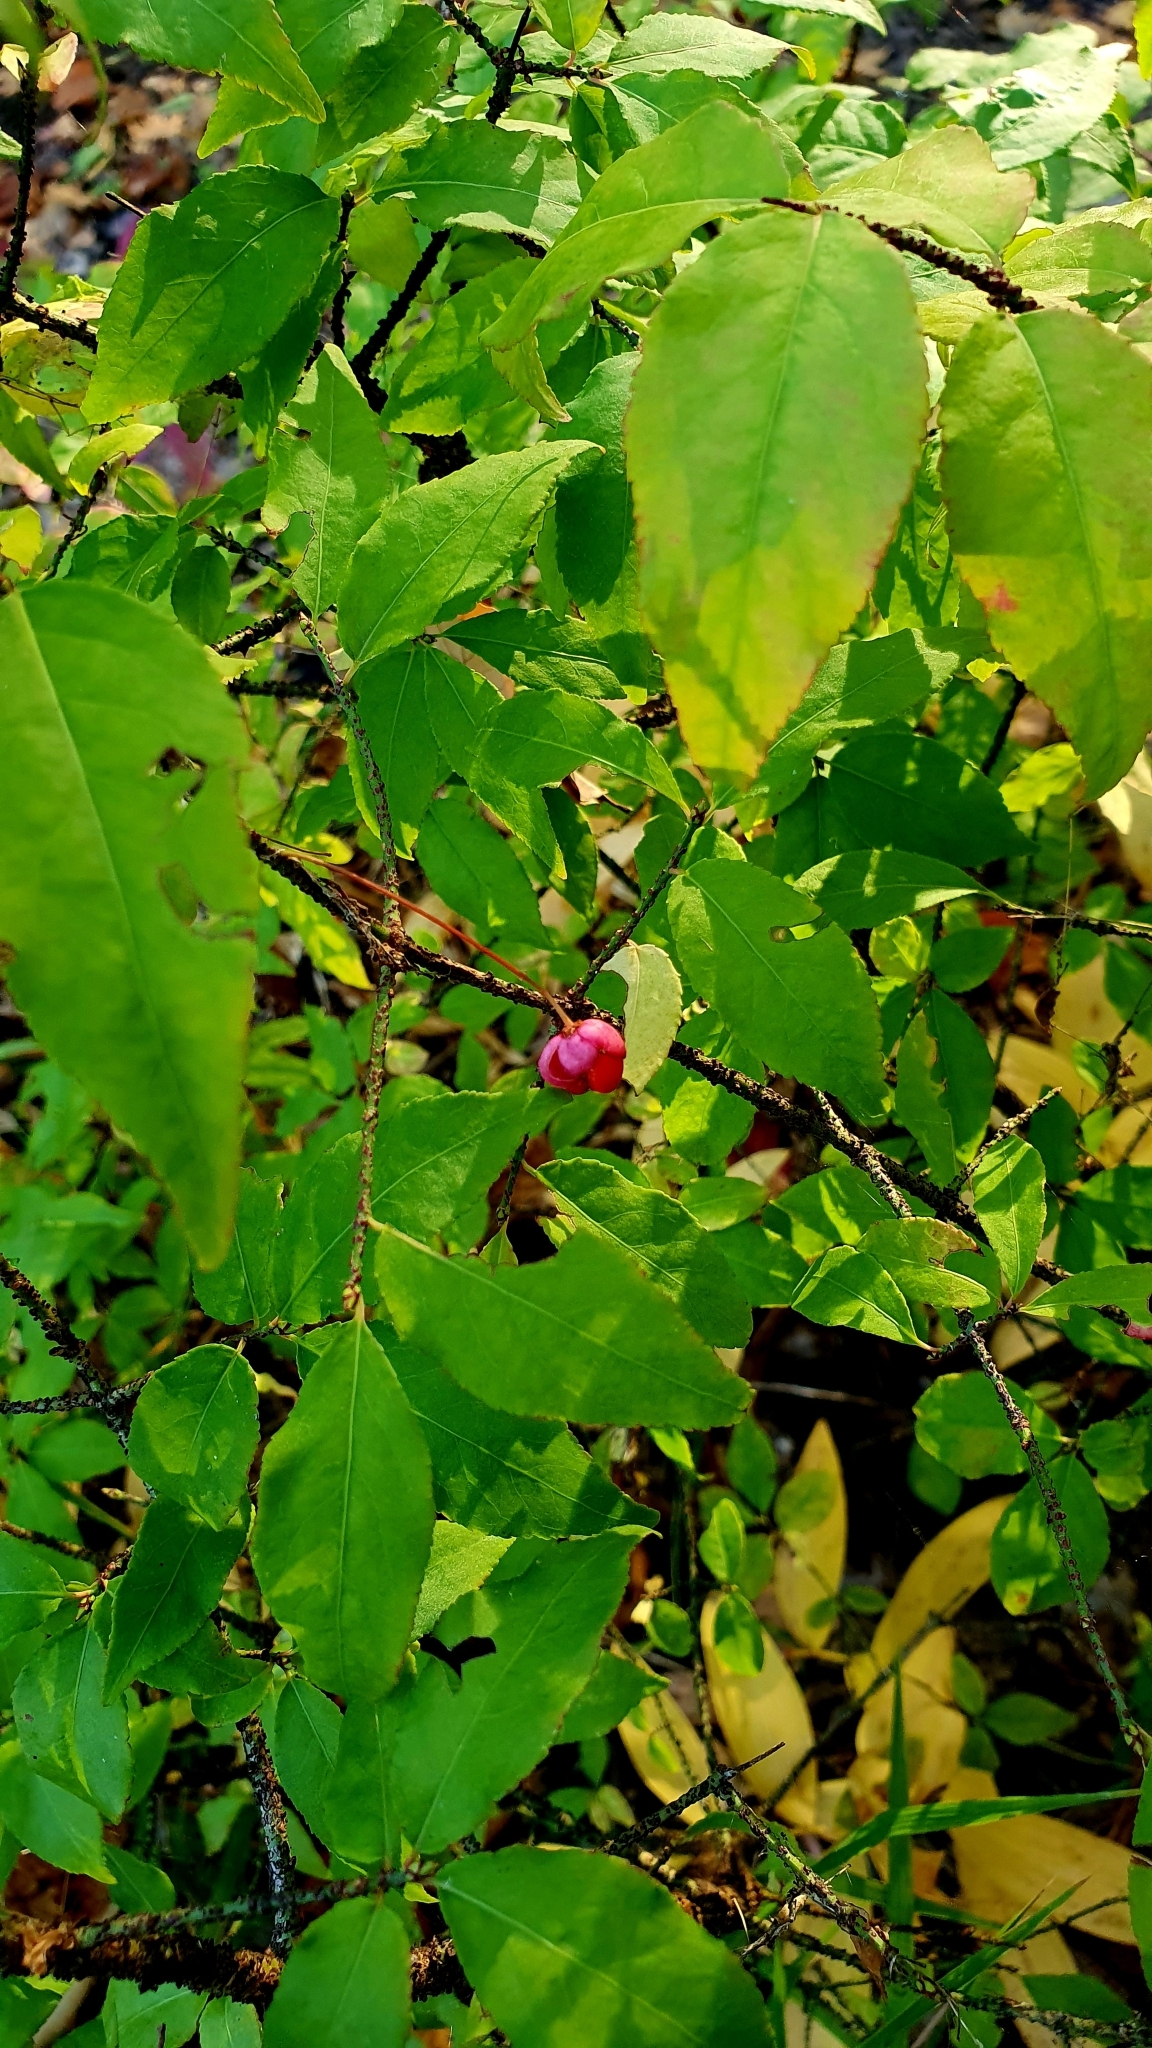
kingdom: Plantae
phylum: Tracheophyta
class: Magnoliopsida
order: Celastrales
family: Celastraceae
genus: Euonymus
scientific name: Euonymus verrucosus
